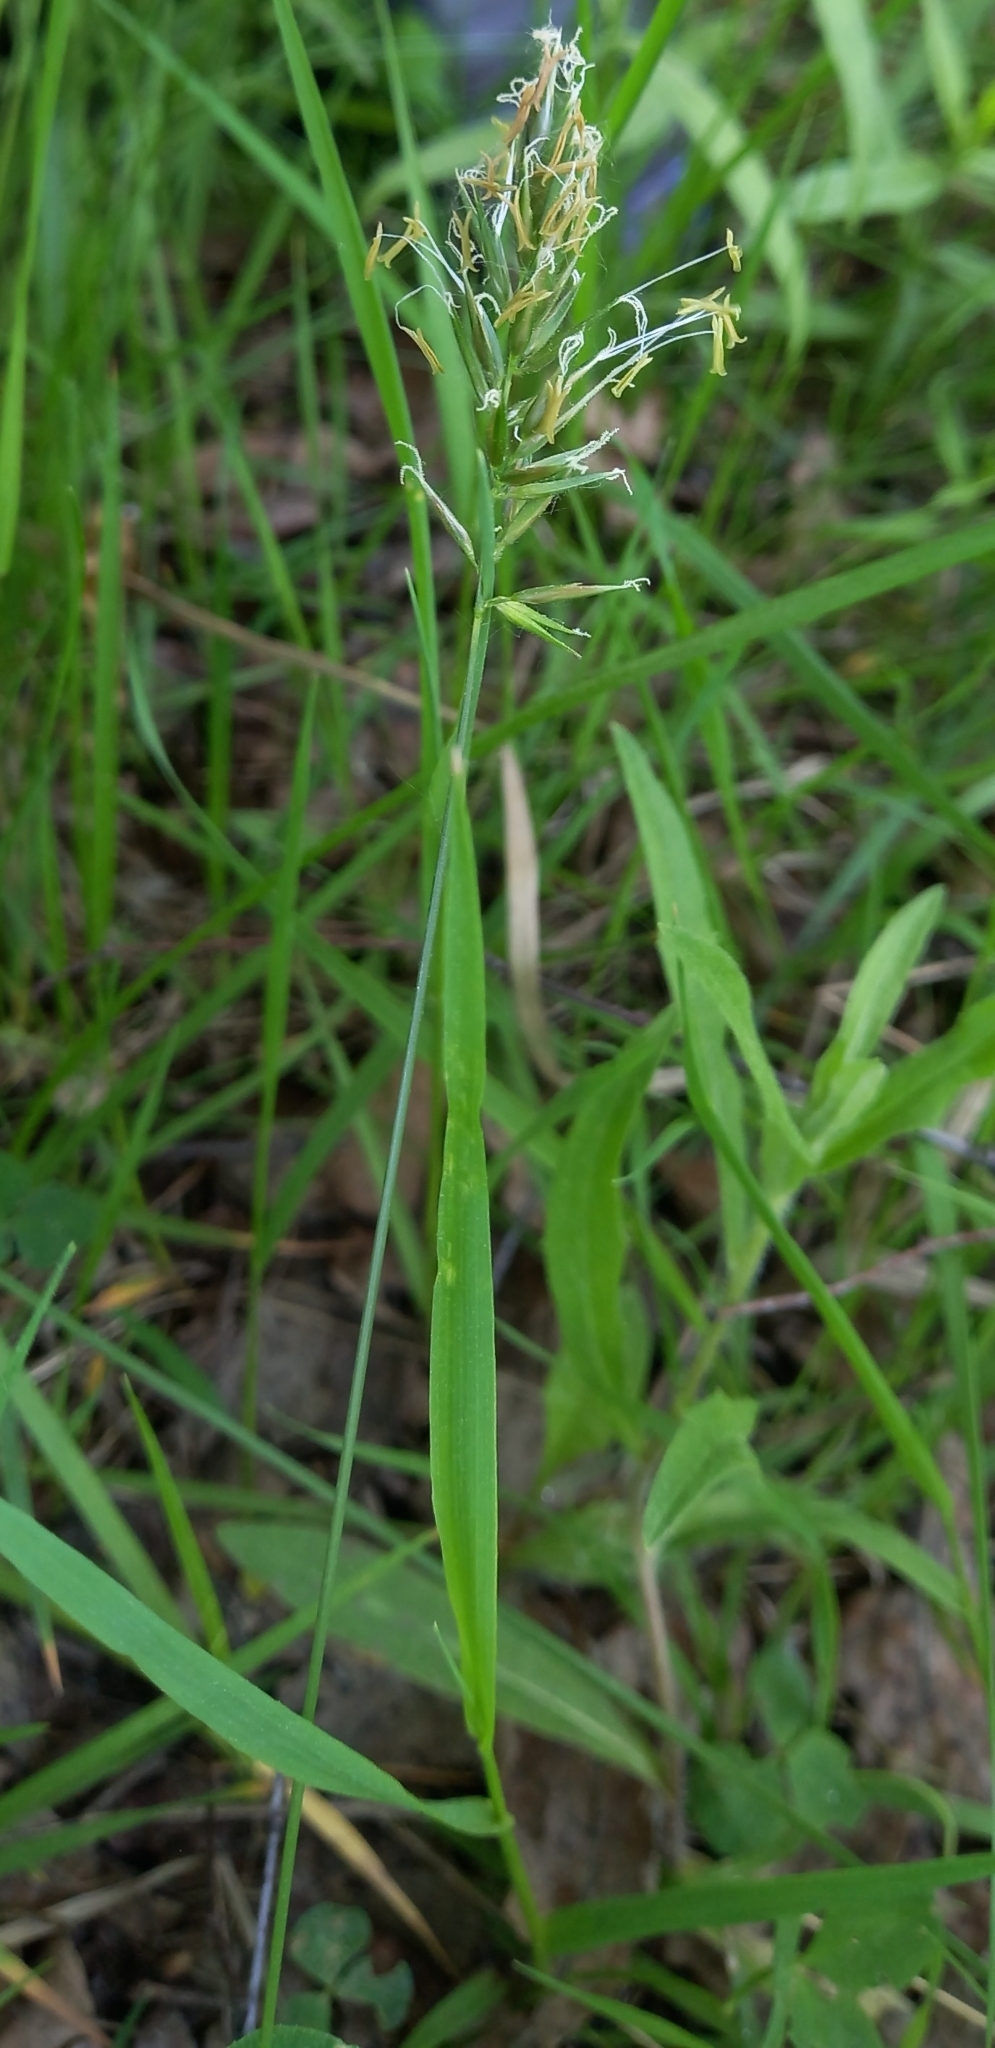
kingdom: Plantae
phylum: Tracheophyta
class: Liliopsida
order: Poales
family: Poaceae
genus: Anthoxanthum
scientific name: Anthoxanthum odoratum
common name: Sweet vernalgrass
